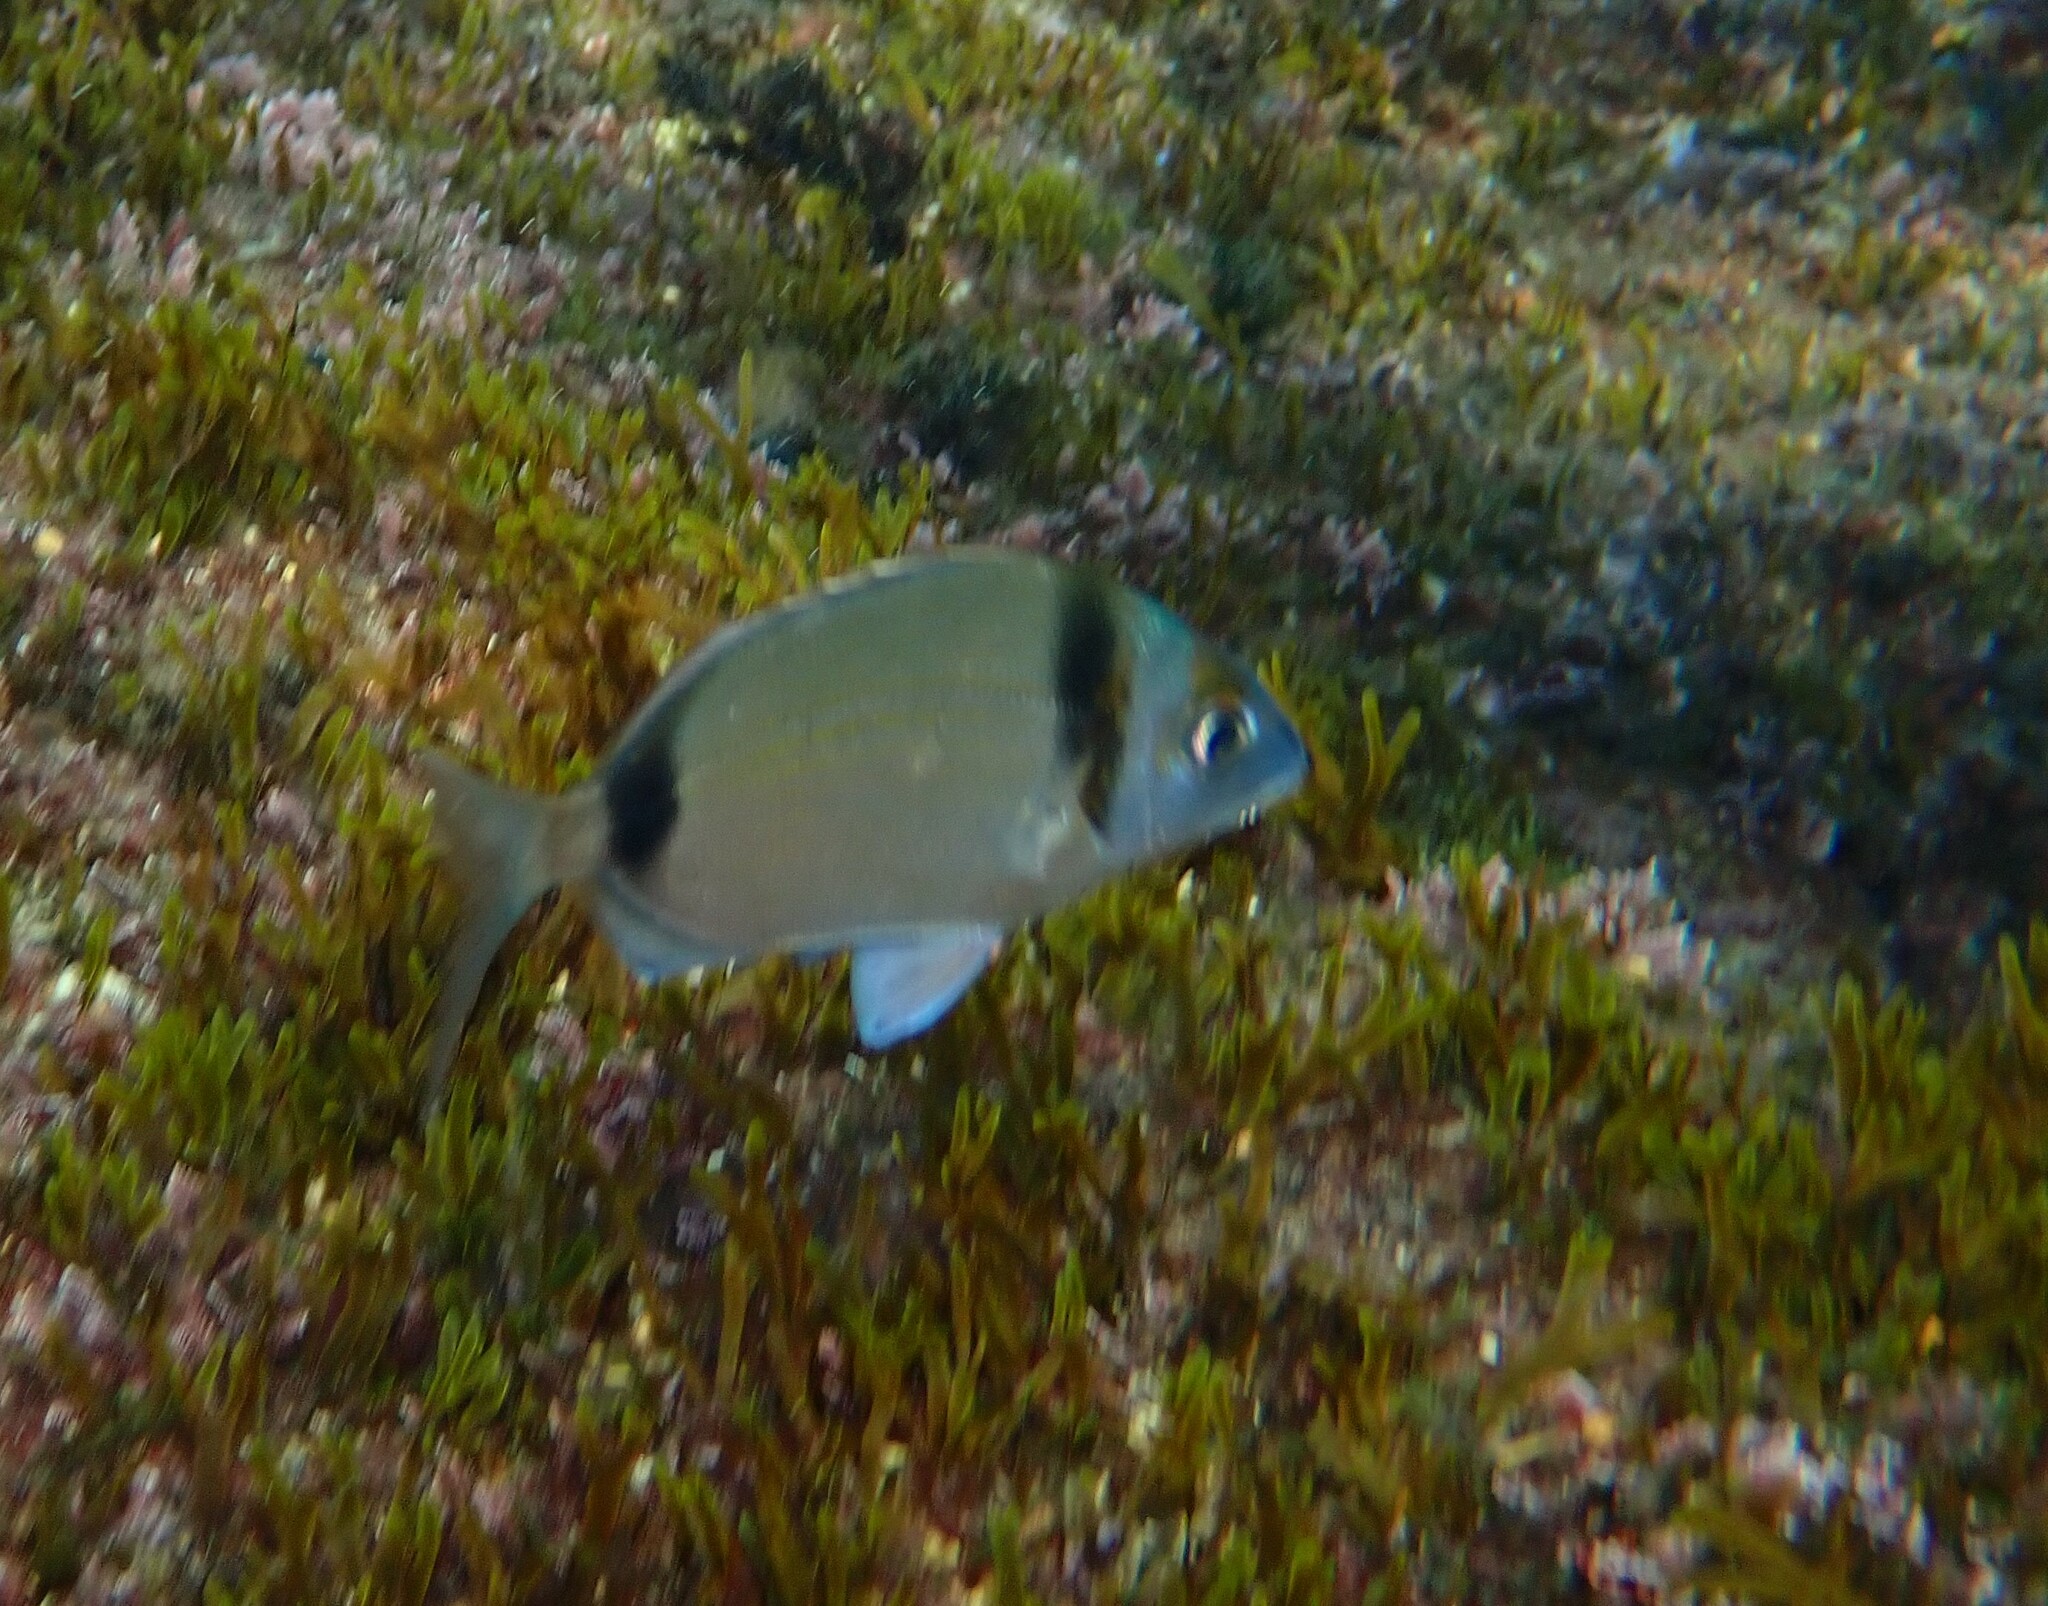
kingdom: Animalia
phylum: Chordata
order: Perciformes
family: Sparidae
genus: Diplodus
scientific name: Diplodus vulgaris
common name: Common two-banded seabream
